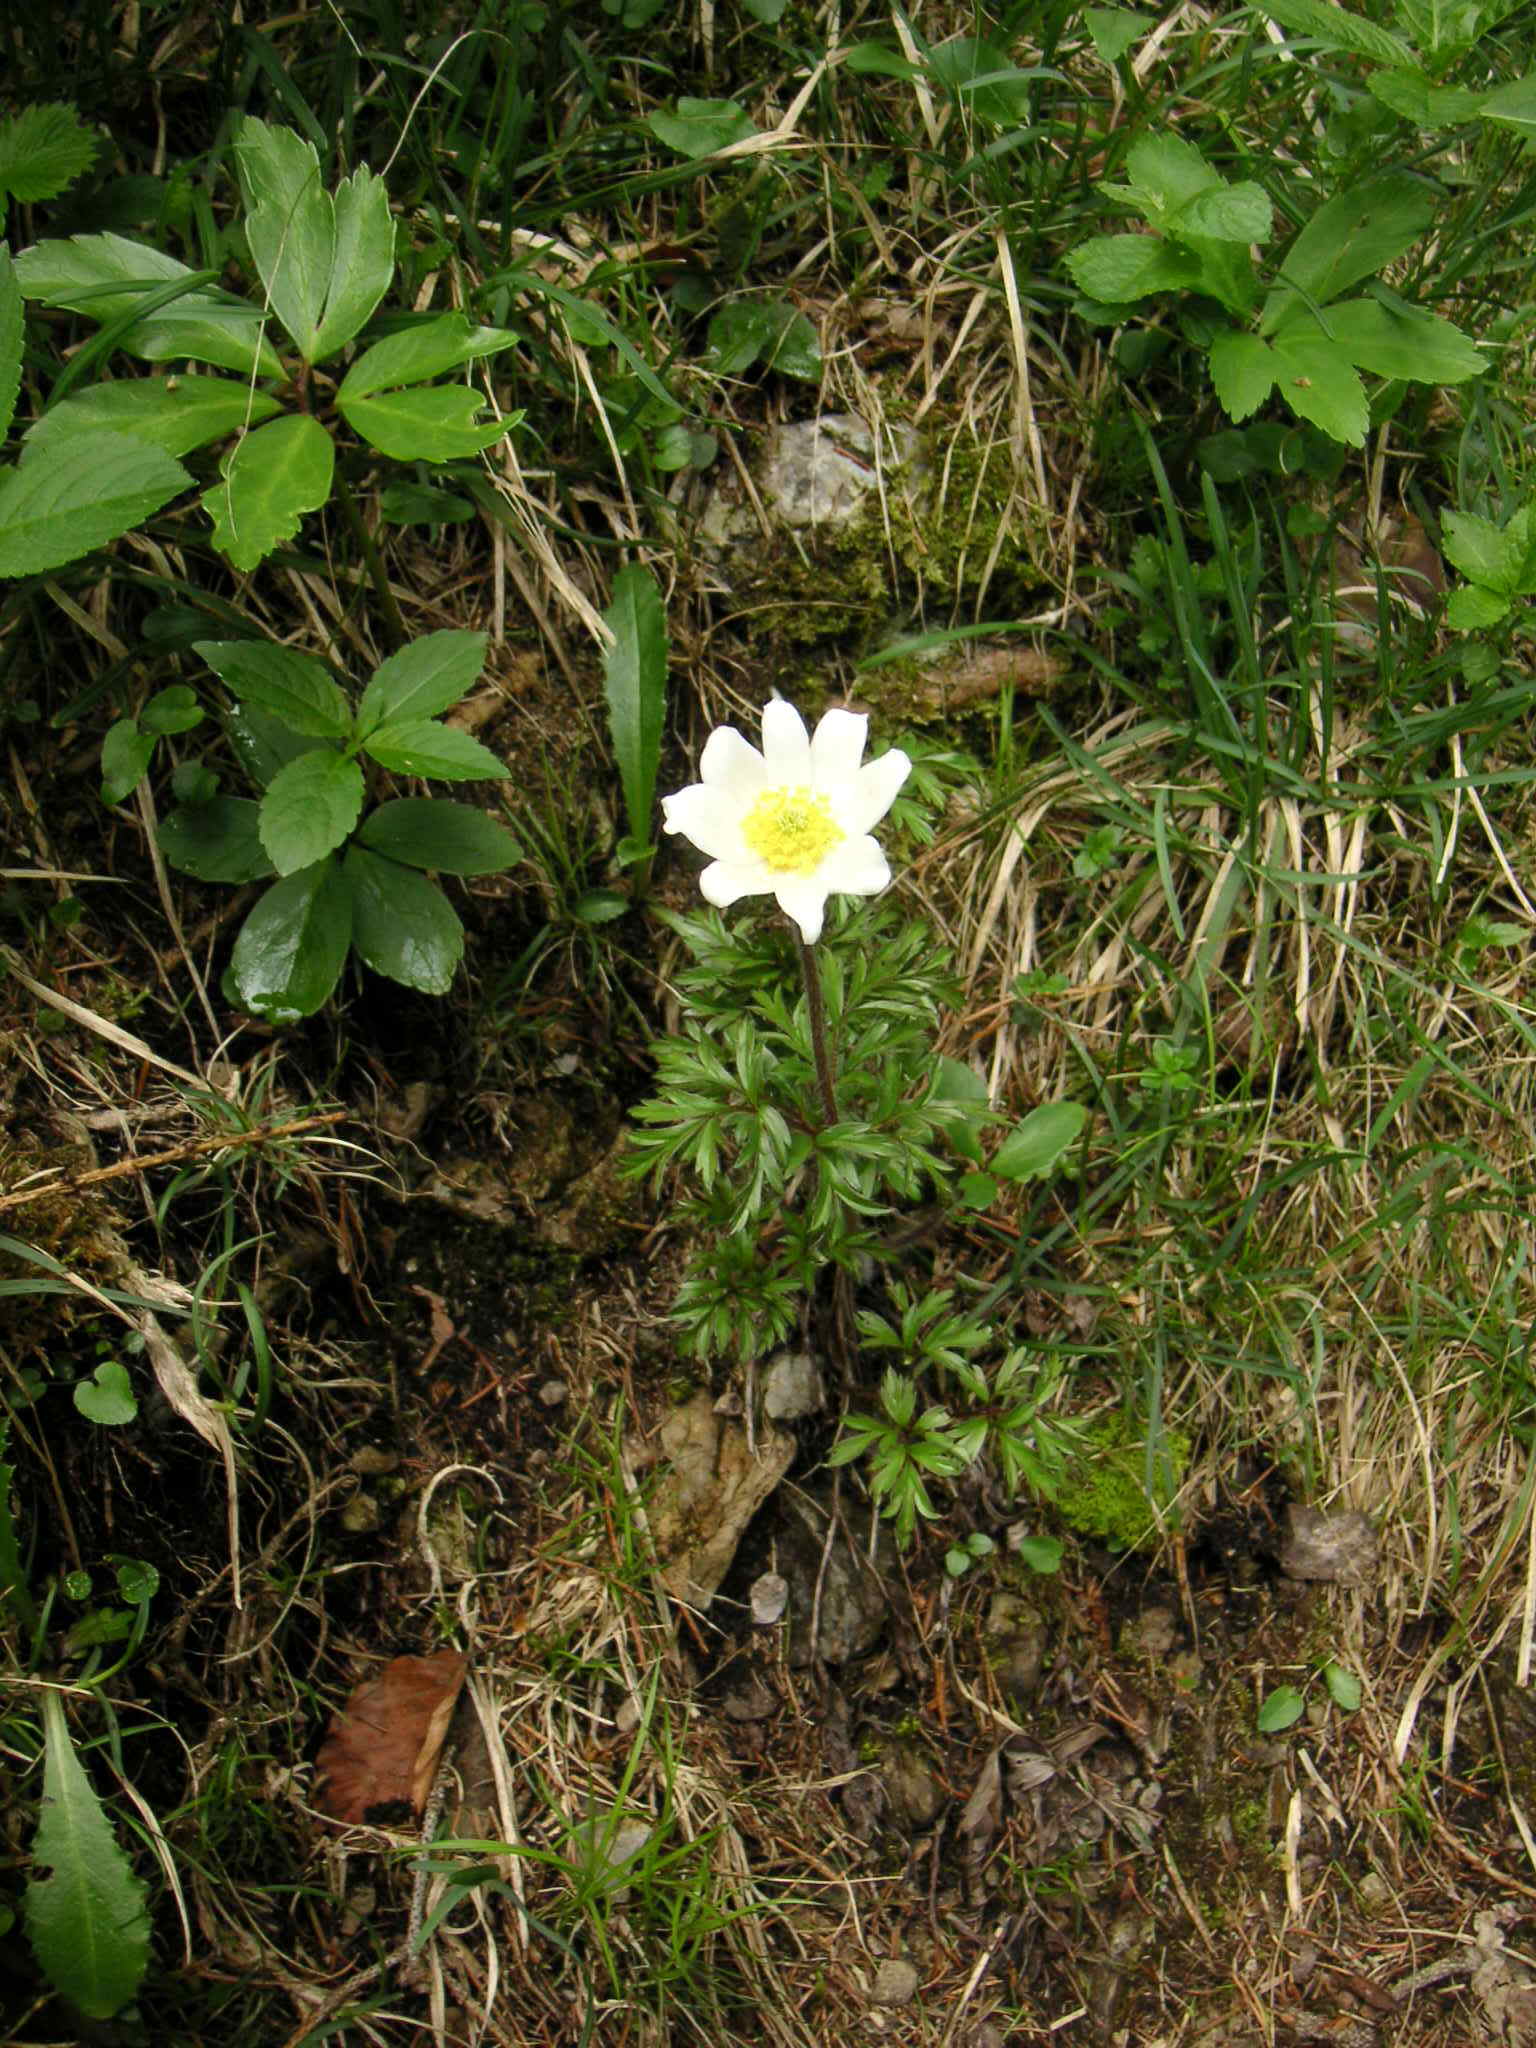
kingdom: Plantae
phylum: Tracheophyta
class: Magnoliopsida
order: Ranunculales
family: Ranunculaceae
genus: Pulsatilla
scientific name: Pulsatilla alpina
